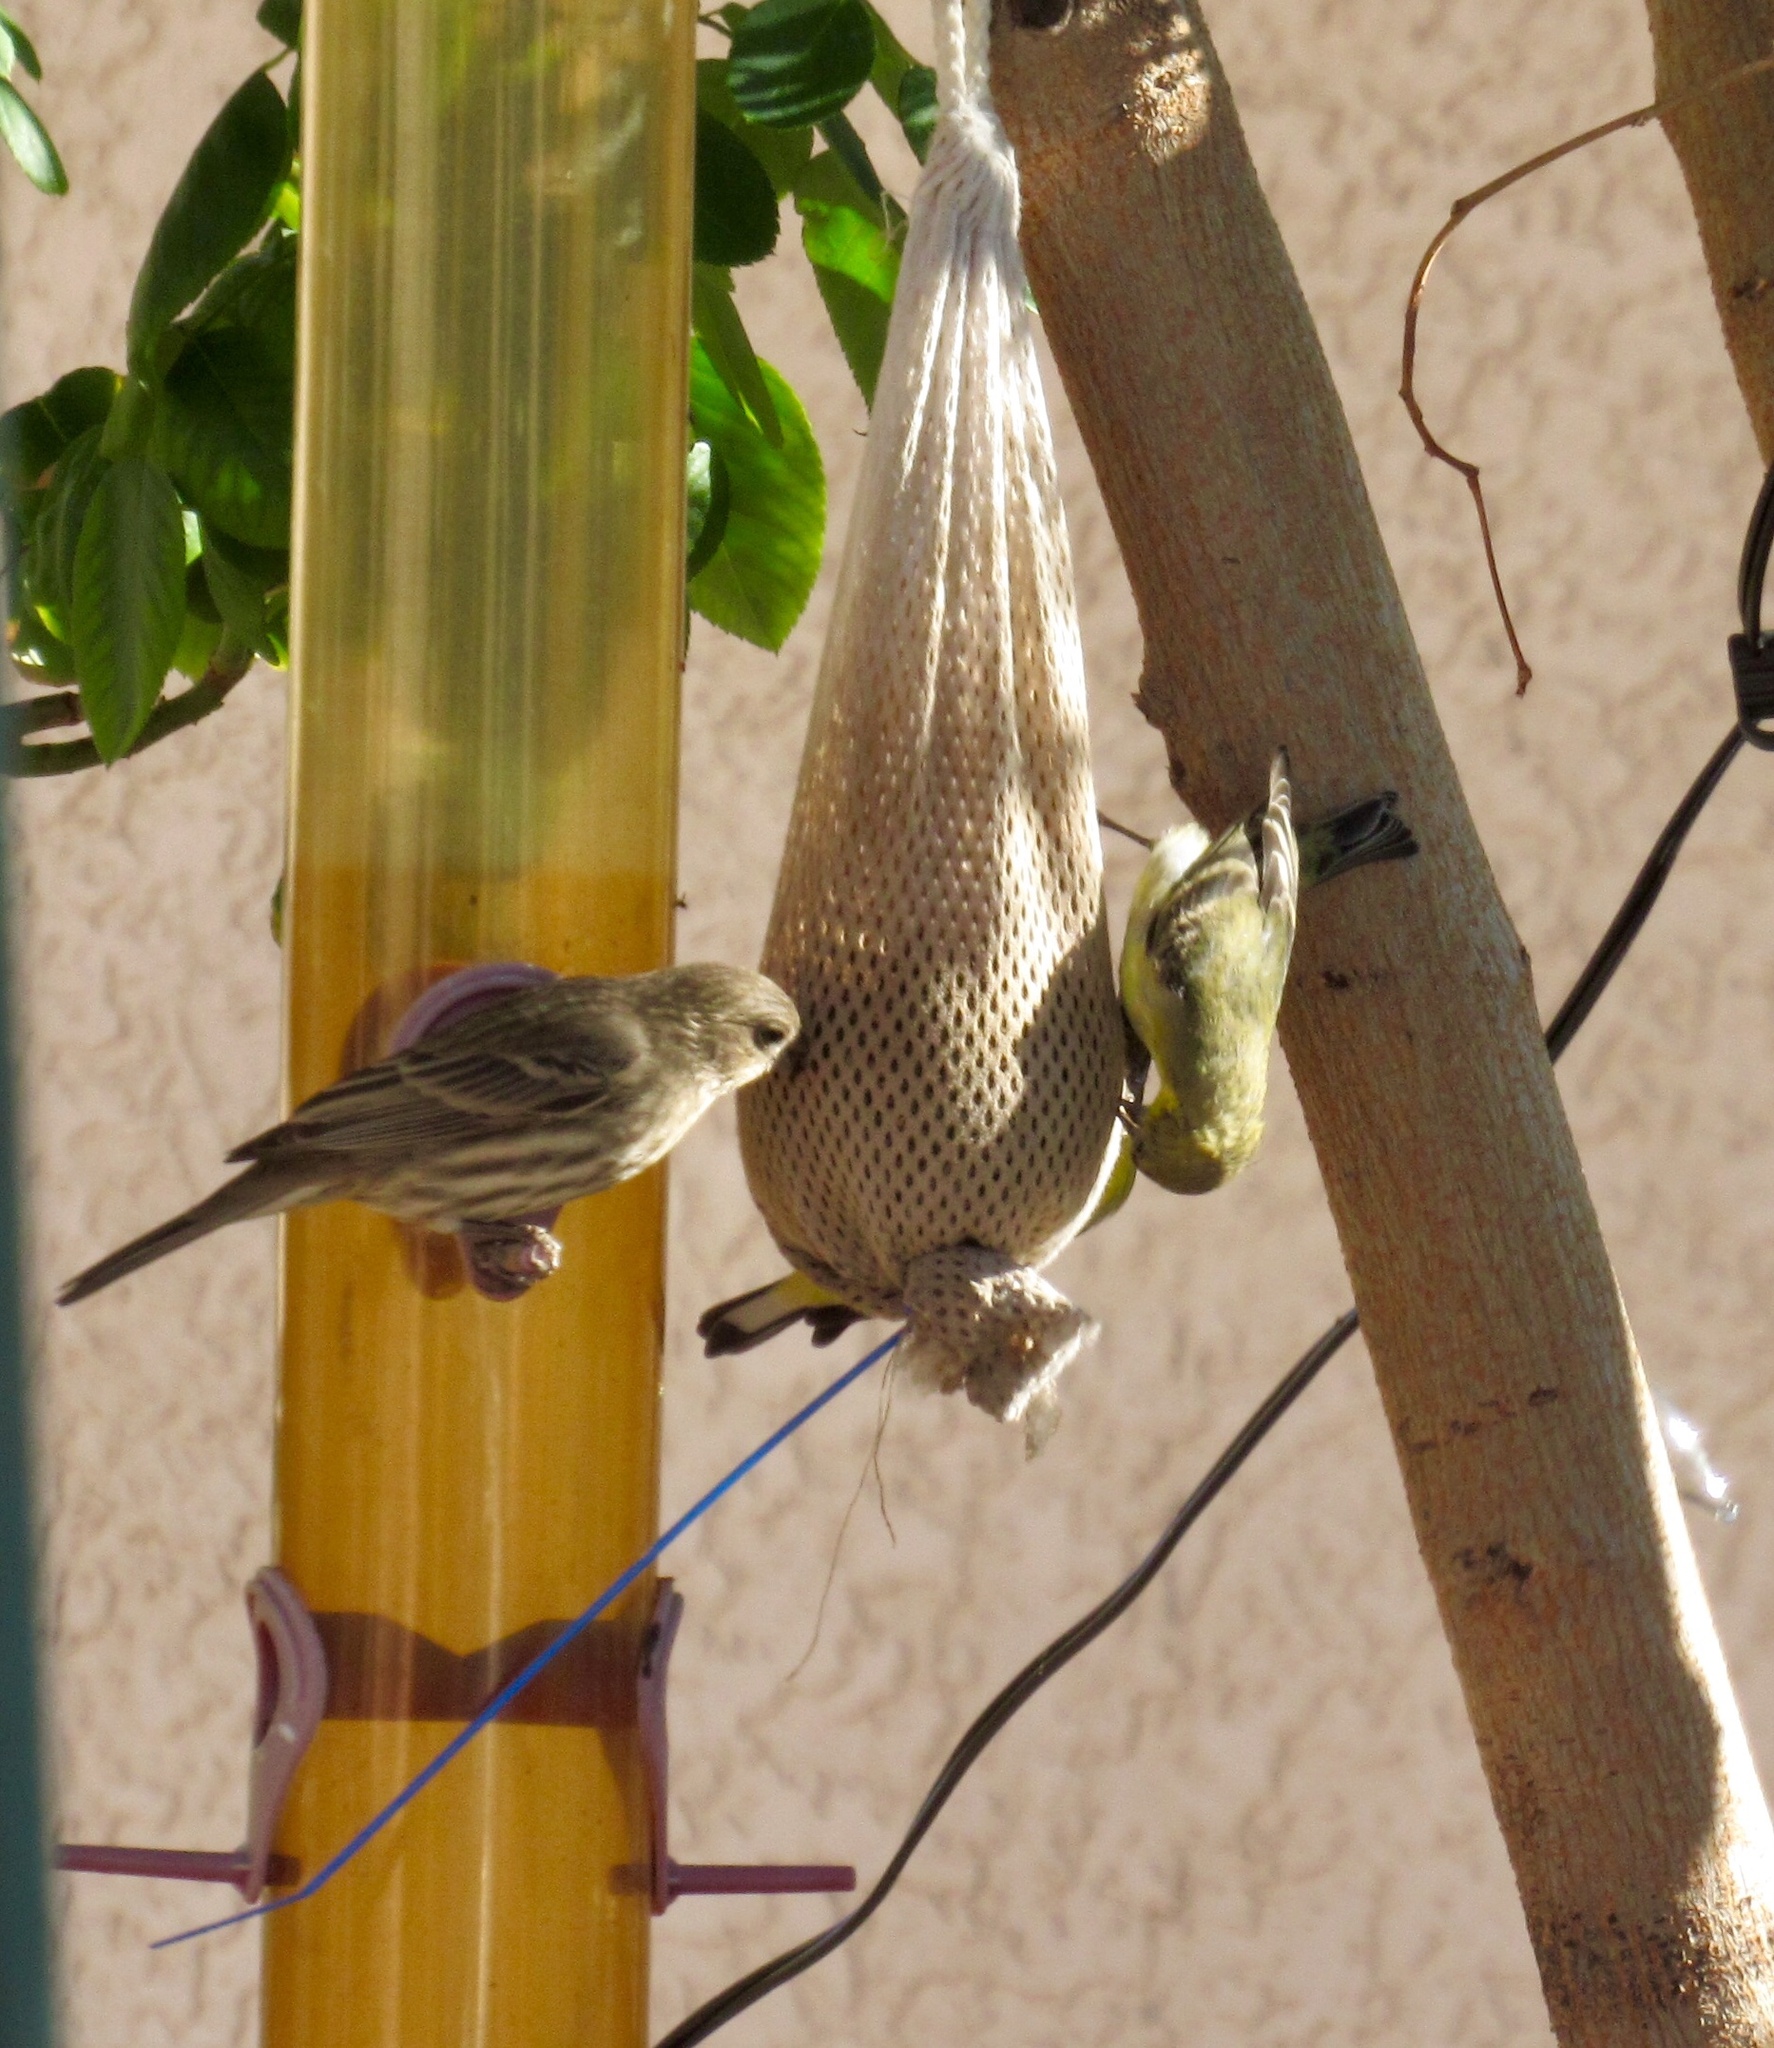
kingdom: Animalia
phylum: Chordata
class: Aves
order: Passeriformes
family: Fringillidae
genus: Spinus
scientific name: Spinus psaltria
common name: Lesser goldfinch
